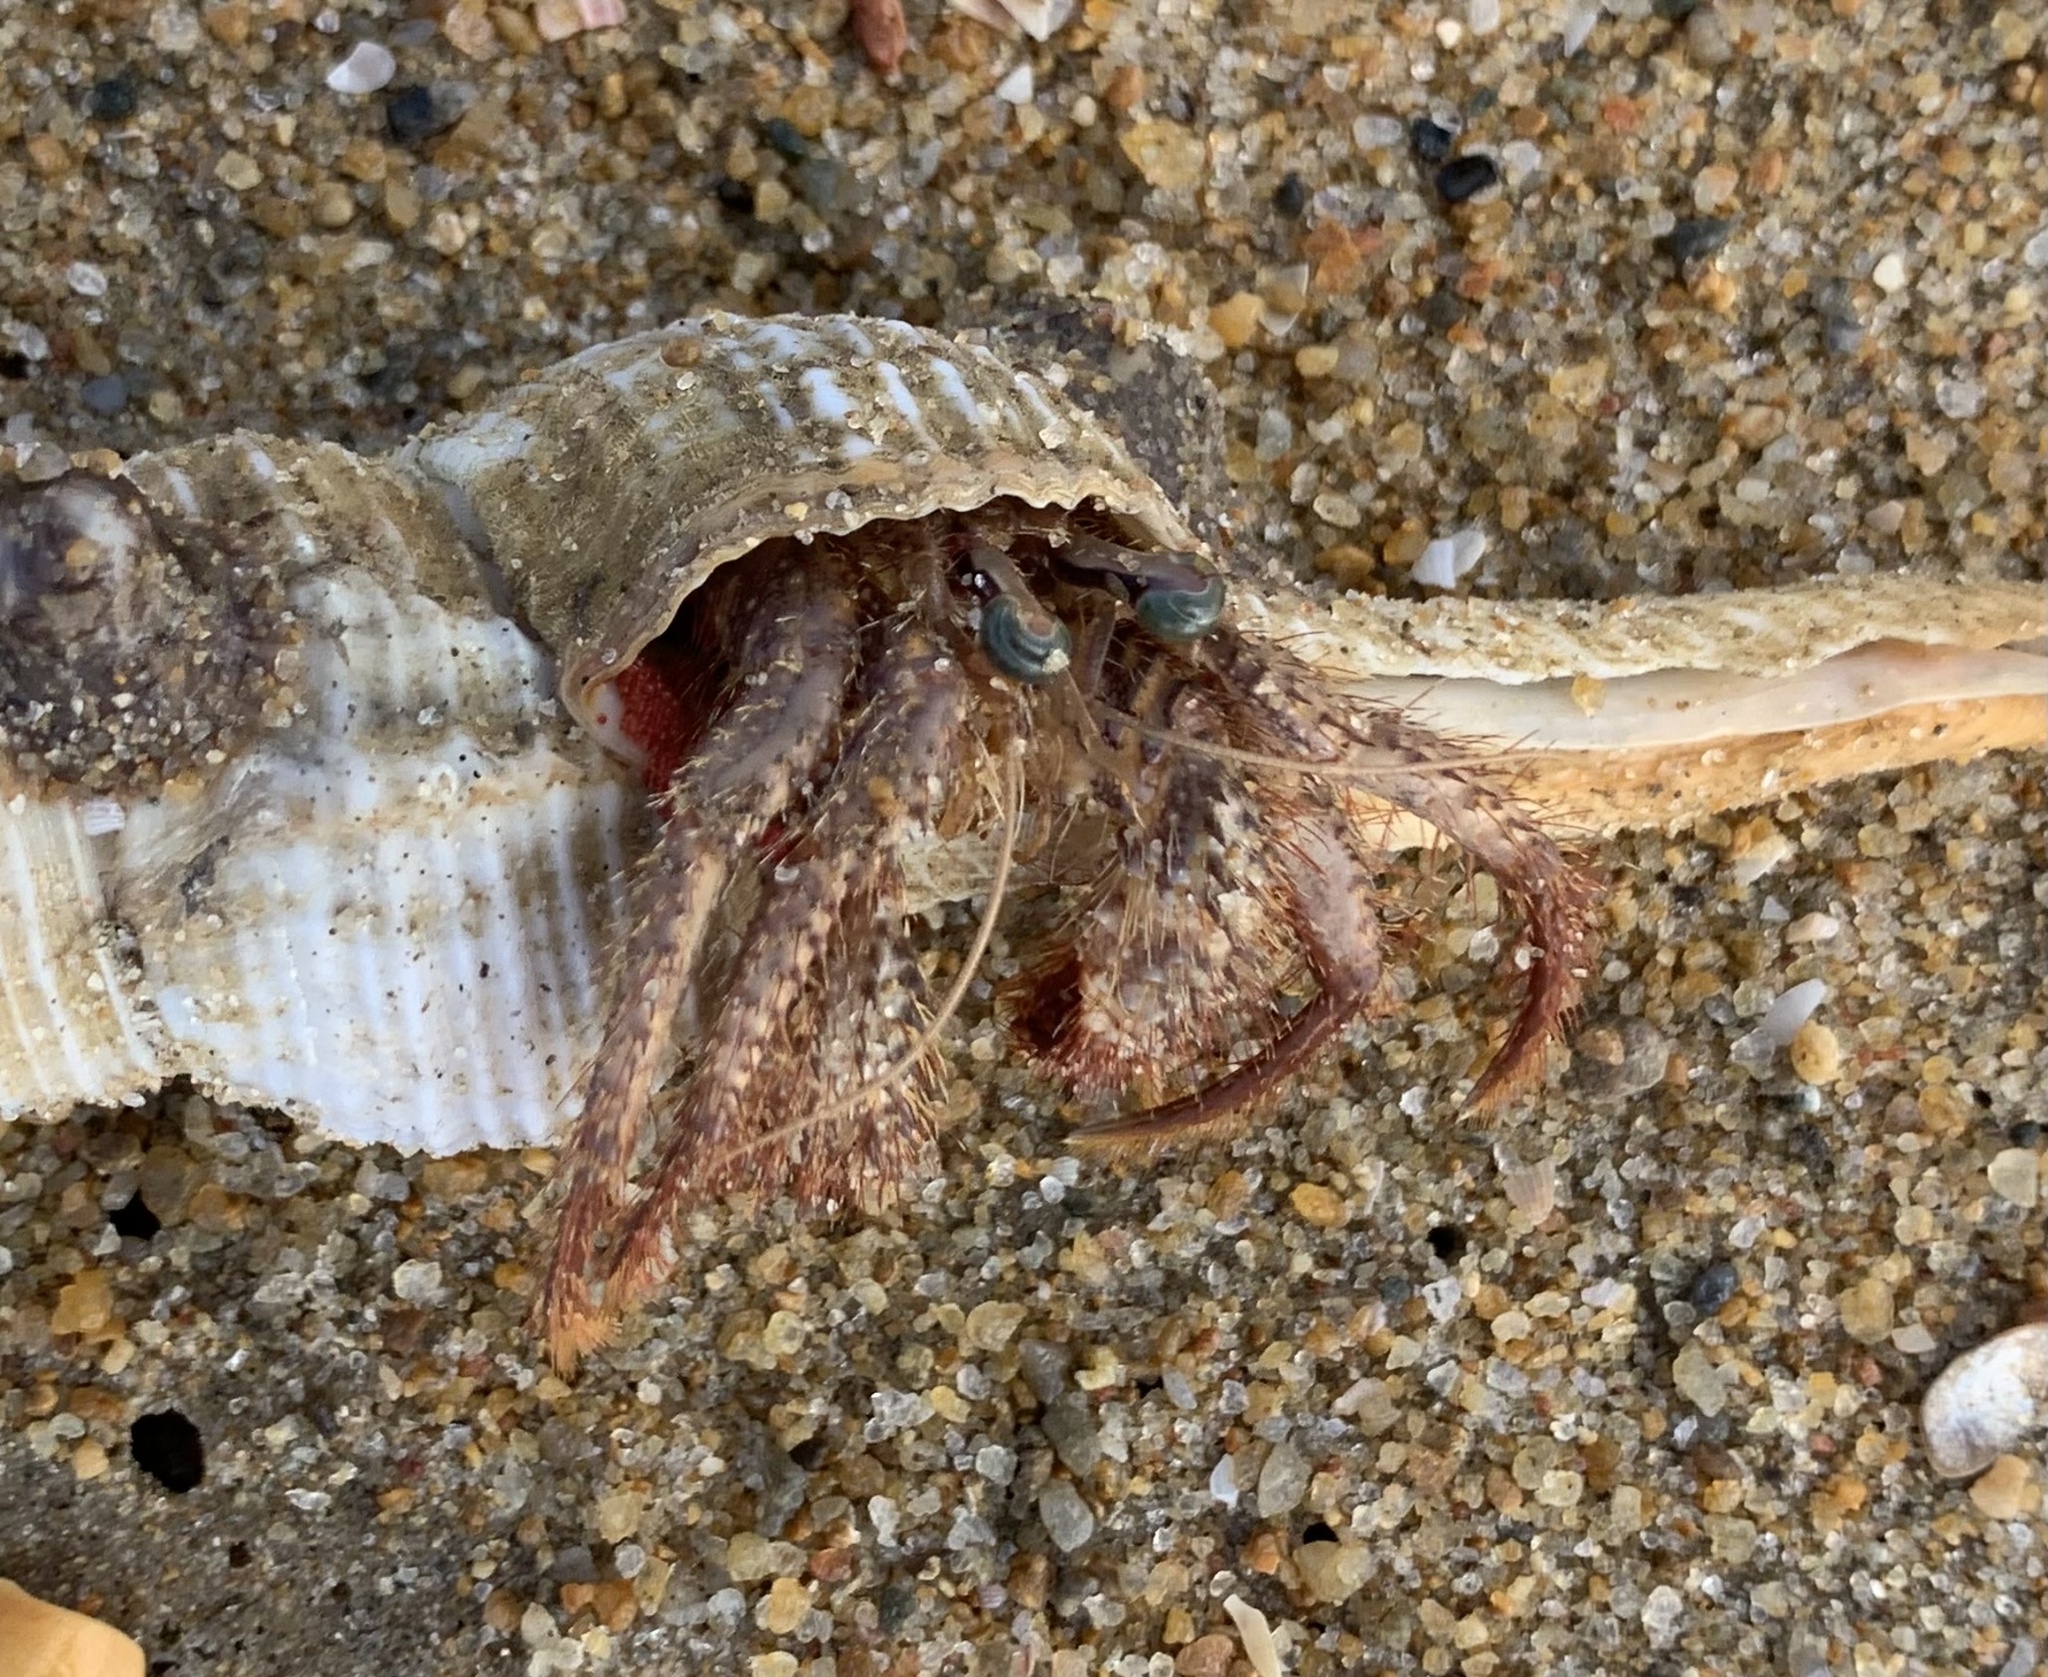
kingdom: Animalia
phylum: Arthropoda
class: Malacostraca
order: Decapoda
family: Diogenidae
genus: Dardanus
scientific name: Dardanus hessii
